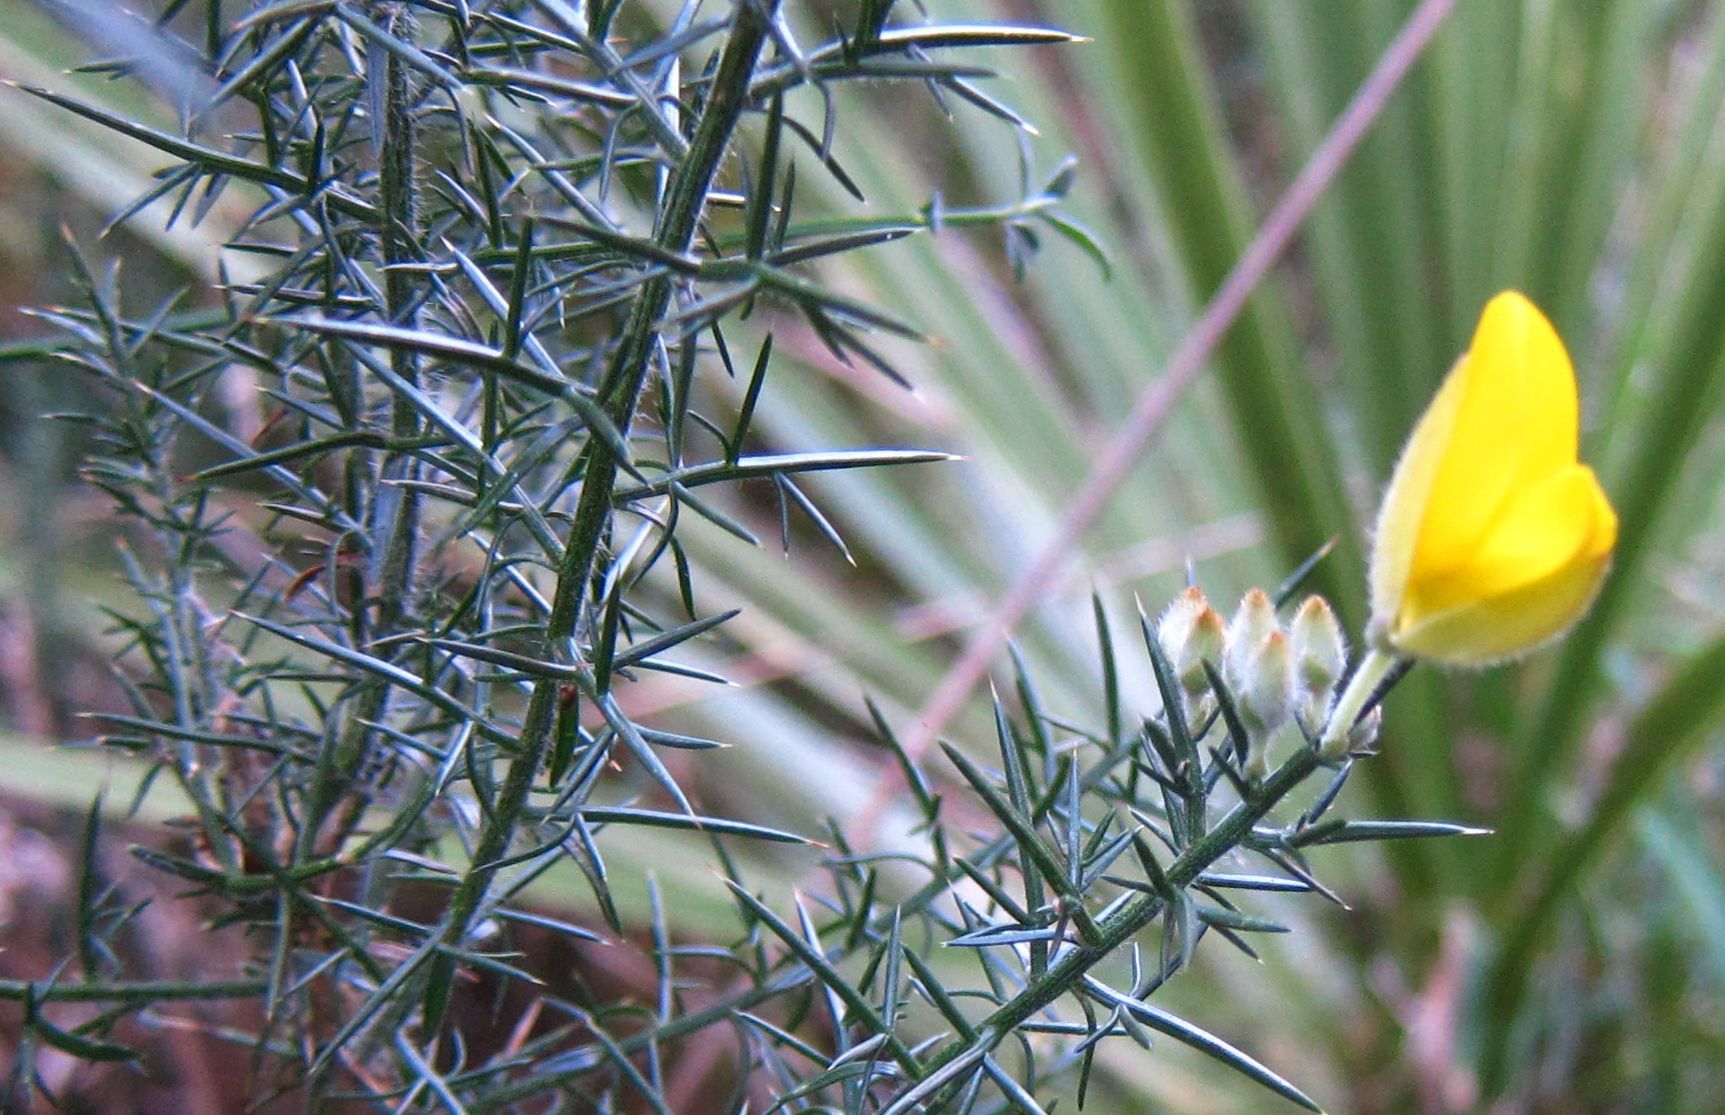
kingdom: Plantae
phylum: Tracheophyta
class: Magnoliopsida
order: Fabales
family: Fabaceae
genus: Ulex
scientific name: Ulex europaeus
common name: Common gorse
